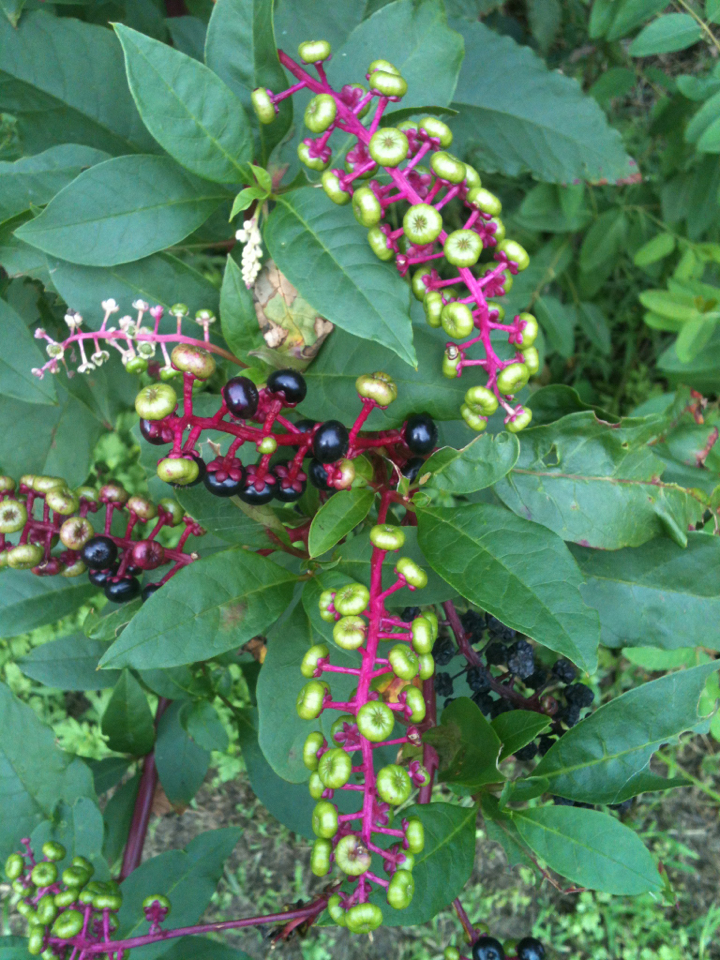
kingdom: Plantae
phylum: Tracheophyta
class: Magnoliopsida
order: Caryophyllales
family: Phytolaccaceae
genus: Phytolacca
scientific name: Phytolacca americana
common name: American pokeweed
